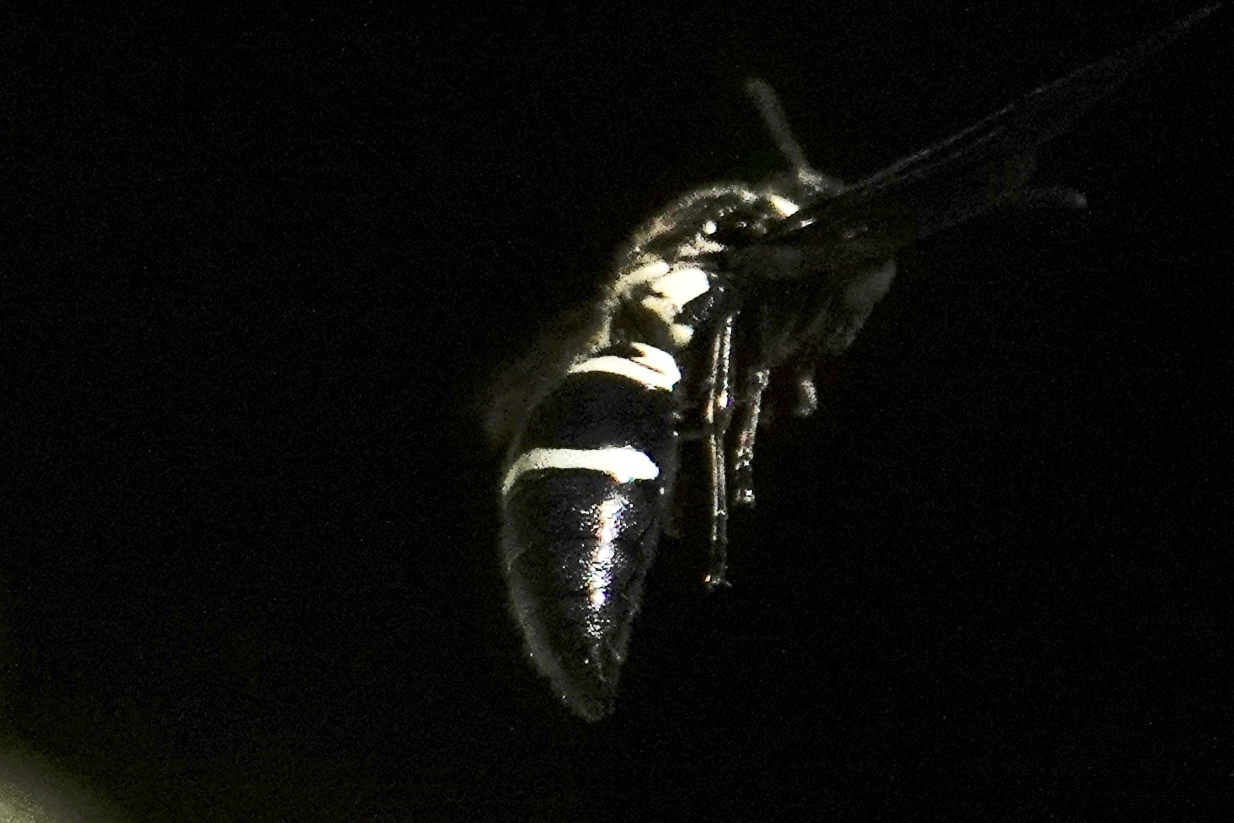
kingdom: Animalia
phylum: Arthropoda
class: Insecta
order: Hymenoptera
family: Eumenidae
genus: Pseudodynerus
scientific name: Pseudodynerus quadrisectus
